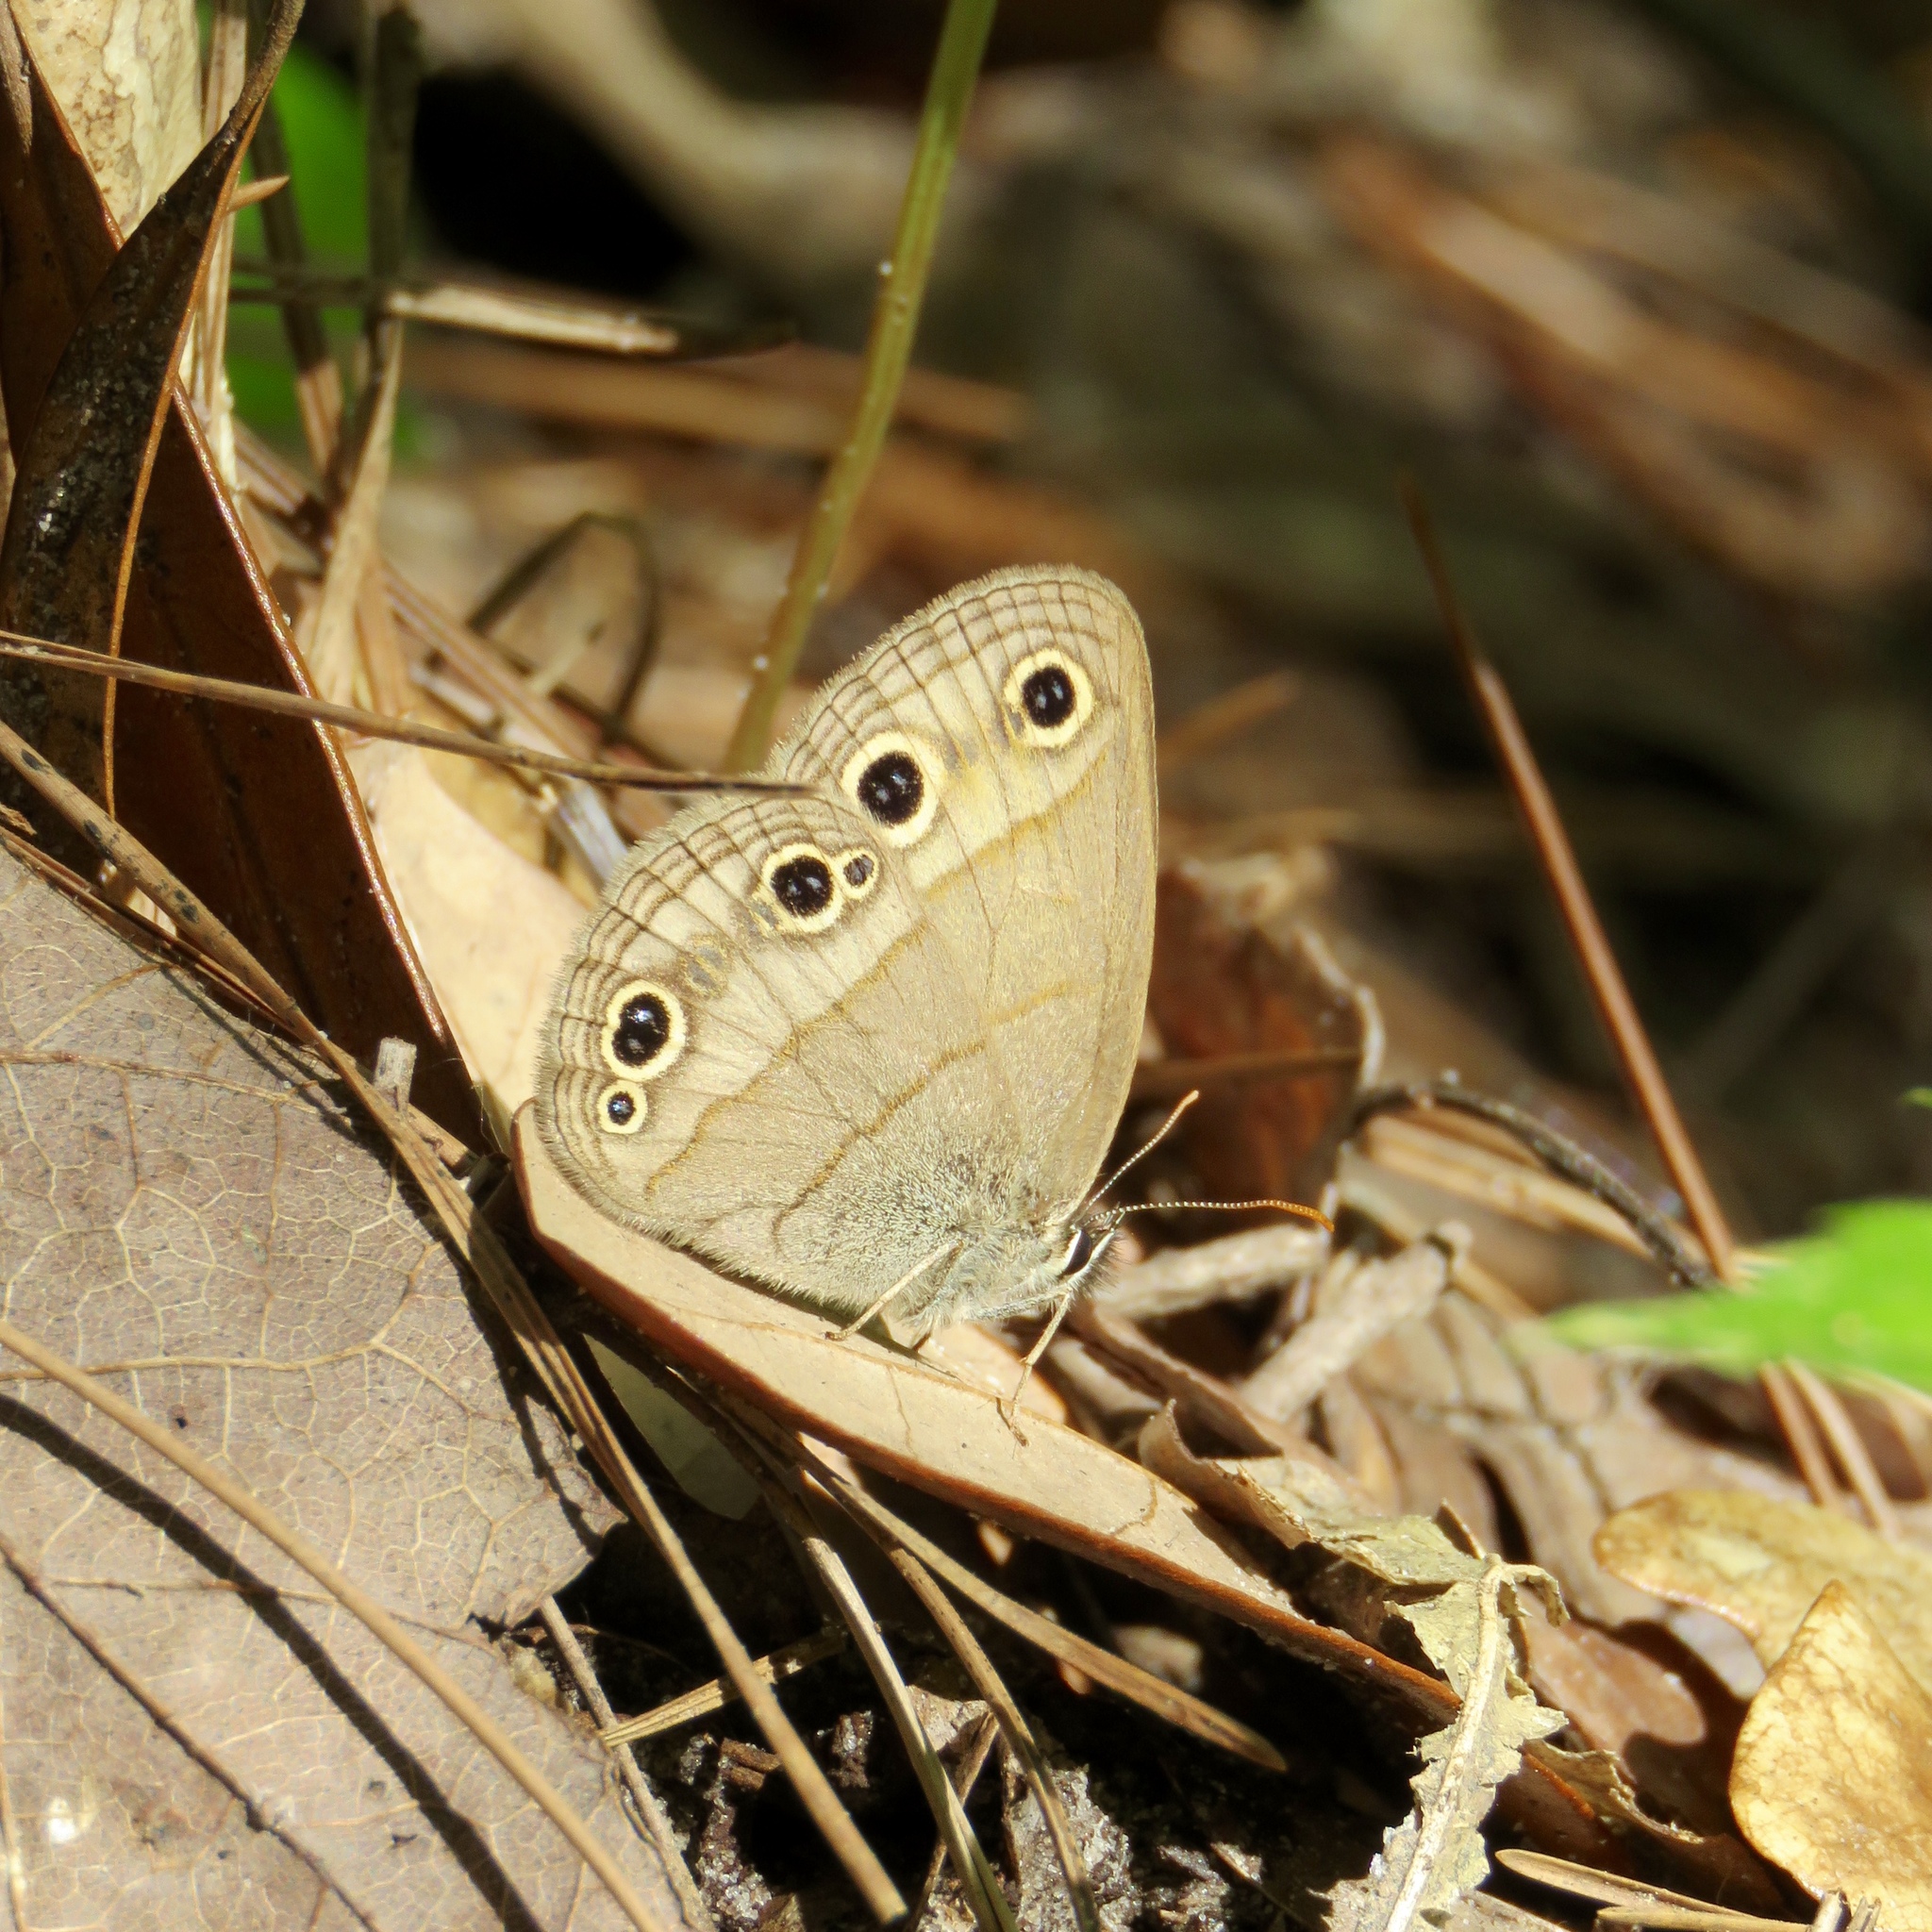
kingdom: Animalia
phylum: Arthropoda
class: Insecta
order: Lepidoptera
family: Nymphalidae
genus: Euptychia
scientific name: Euptychia cymela
